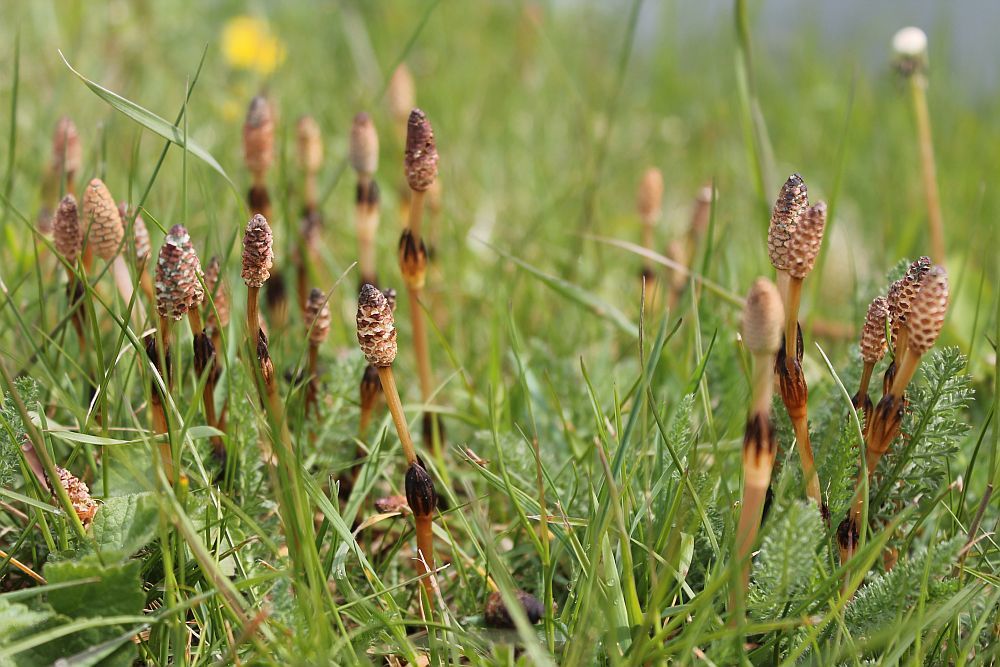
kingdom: Plantae
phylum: Tracheophyta
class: Polypodiopsida
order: Equisetales
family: Equisetaceae
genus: Equisetum
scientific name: Equisetum arvense
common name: Field horsetail
